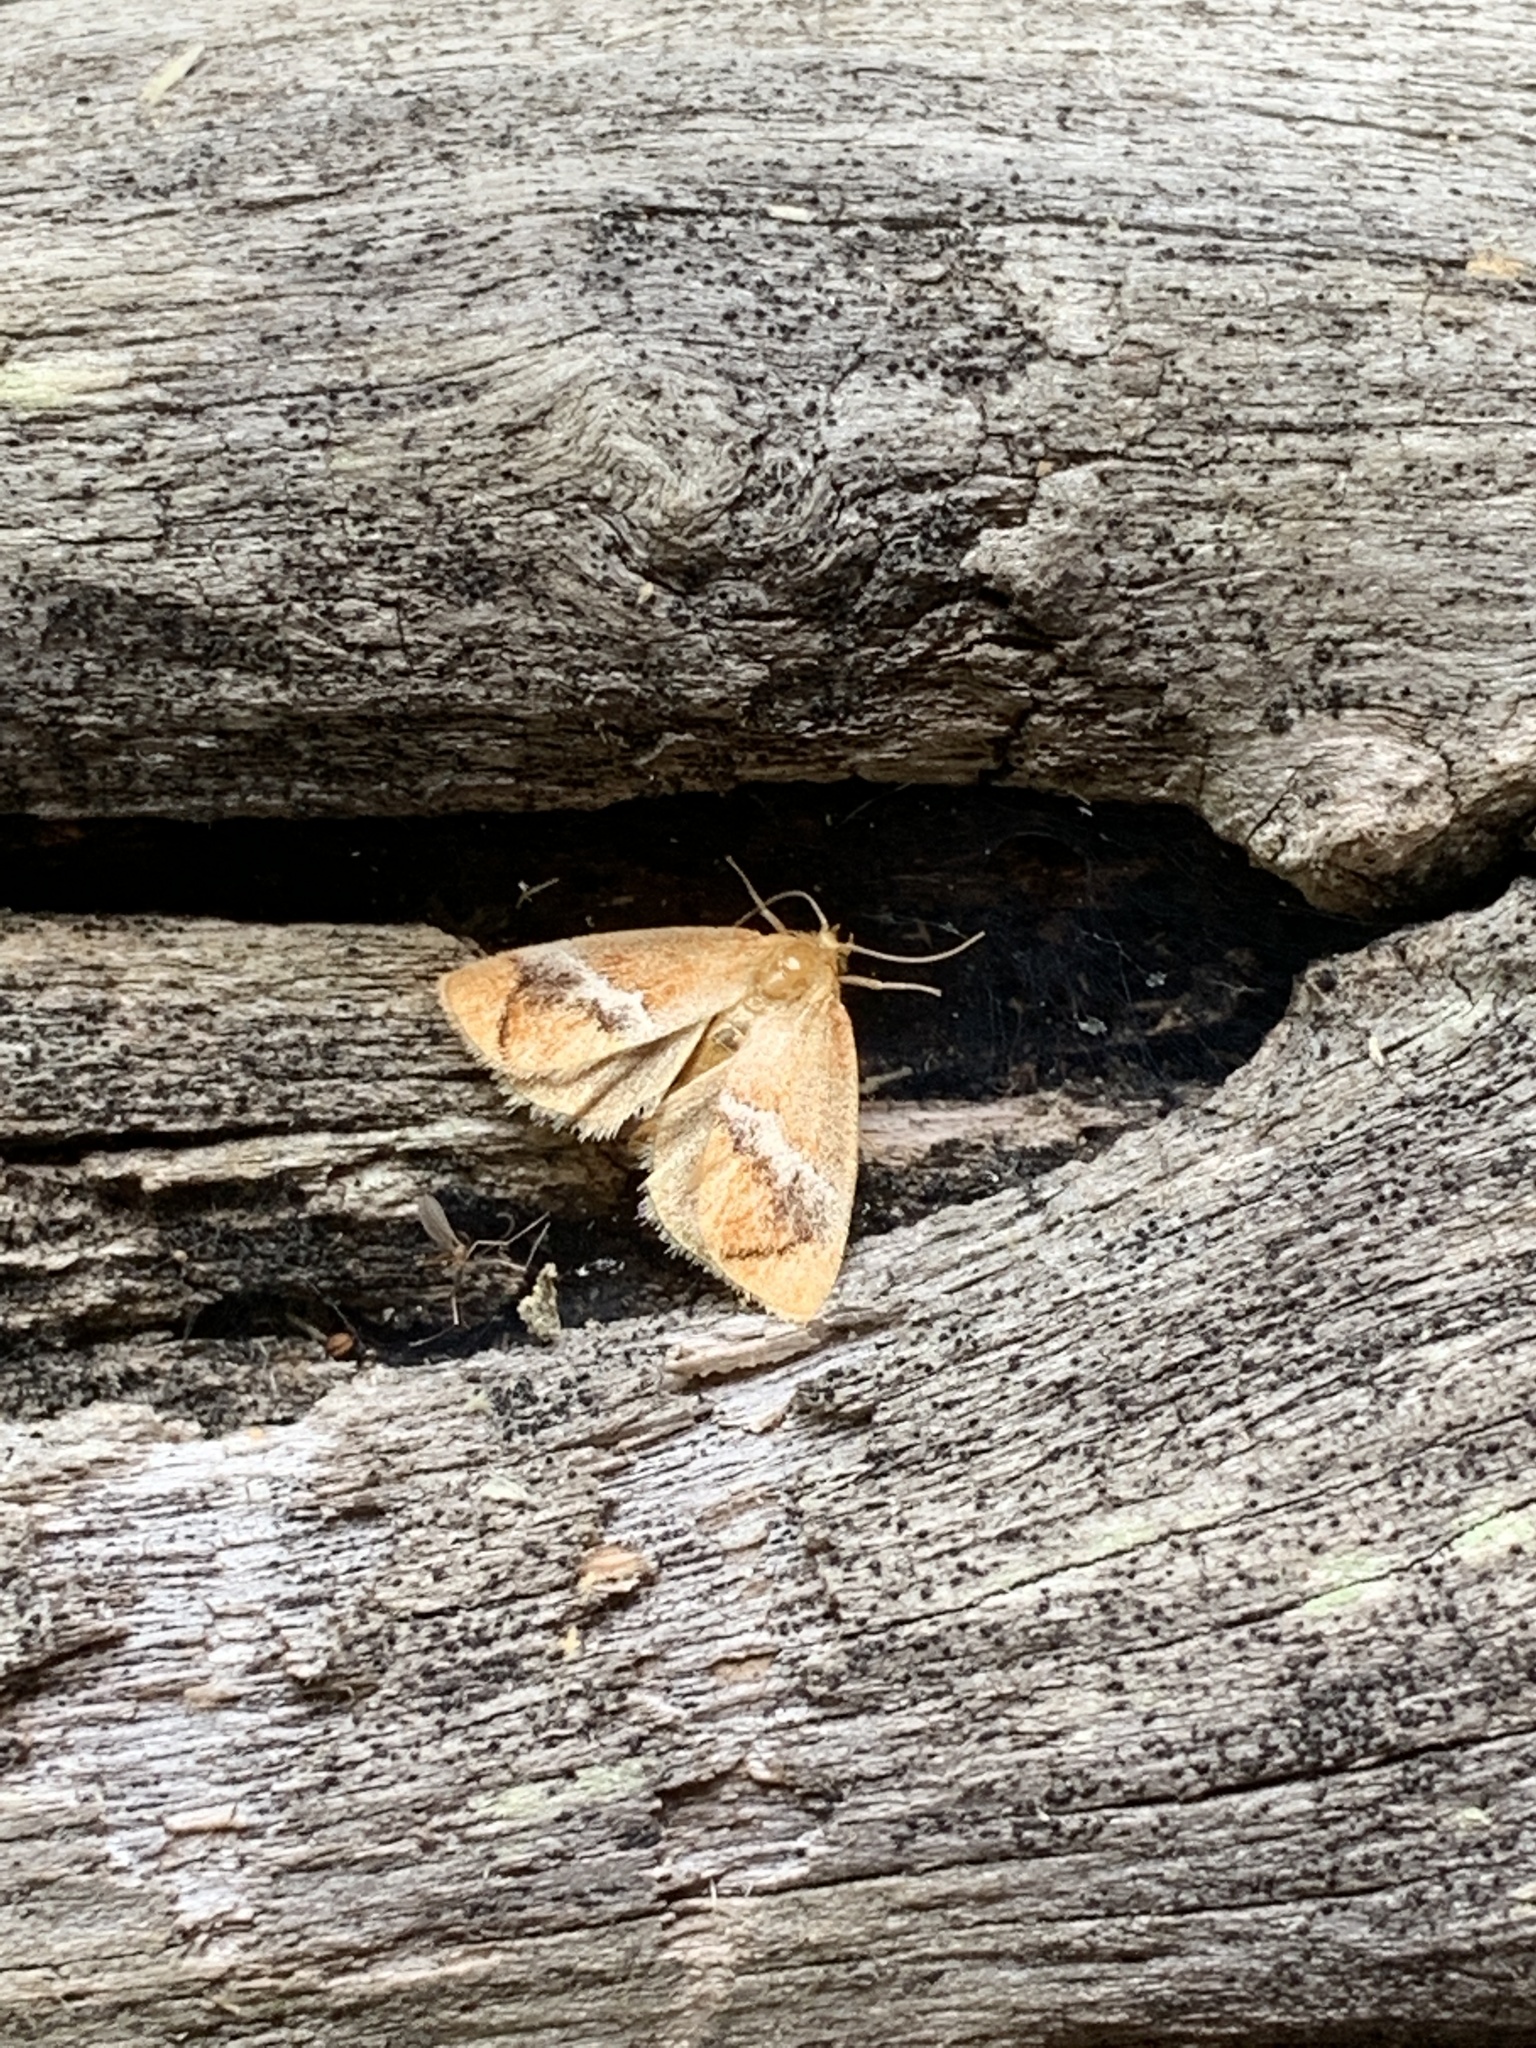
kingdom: Animalia
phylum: Arthropoda
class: Insecta
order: Lepidoptera
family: Limacodidae
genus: Lithacodes
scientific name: Lithacodes fasciola
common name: Yellow-shouldered slug moth
